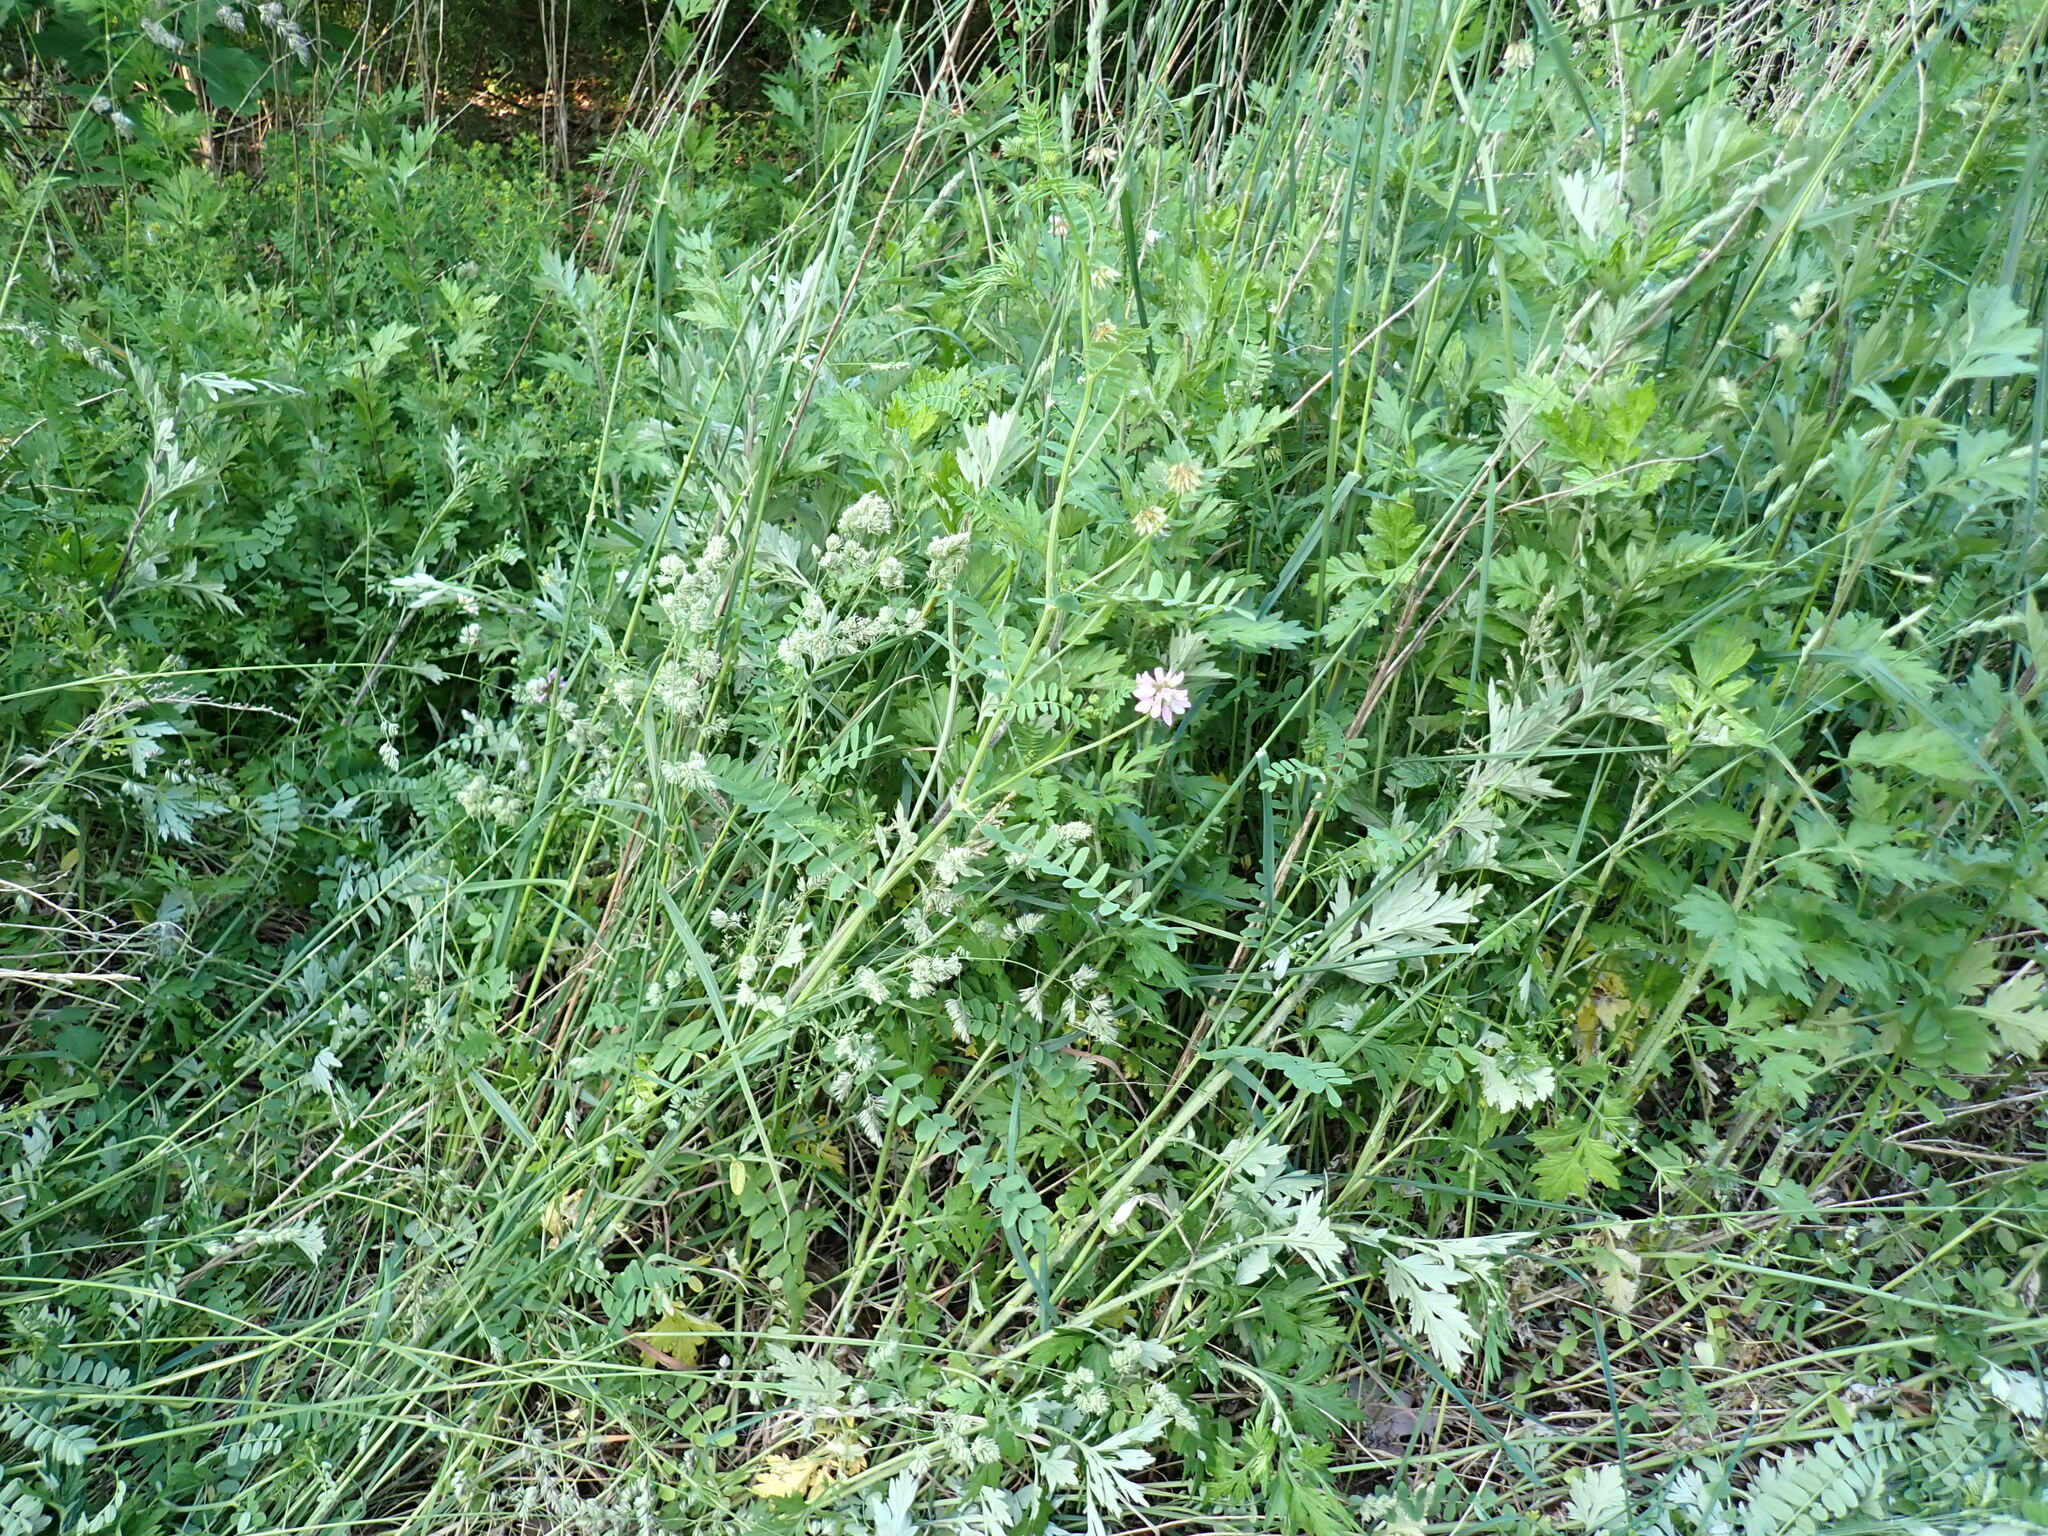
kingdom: Plantae
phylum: Tracheophyta
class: Magnoliopsida
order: Fabales
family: Fabaceae
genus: Coronilla
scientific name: Coronilla varia
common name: Crownvetch
